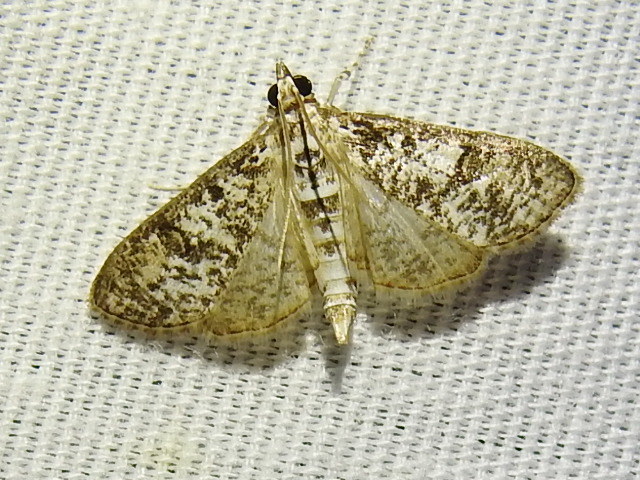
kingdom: Animalia
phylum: Arthropoda
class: Insecta
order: Lepidoptera
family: Crambidae
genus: Palpita
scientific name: Palpita magniferalis
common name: Splendid palpita moth
